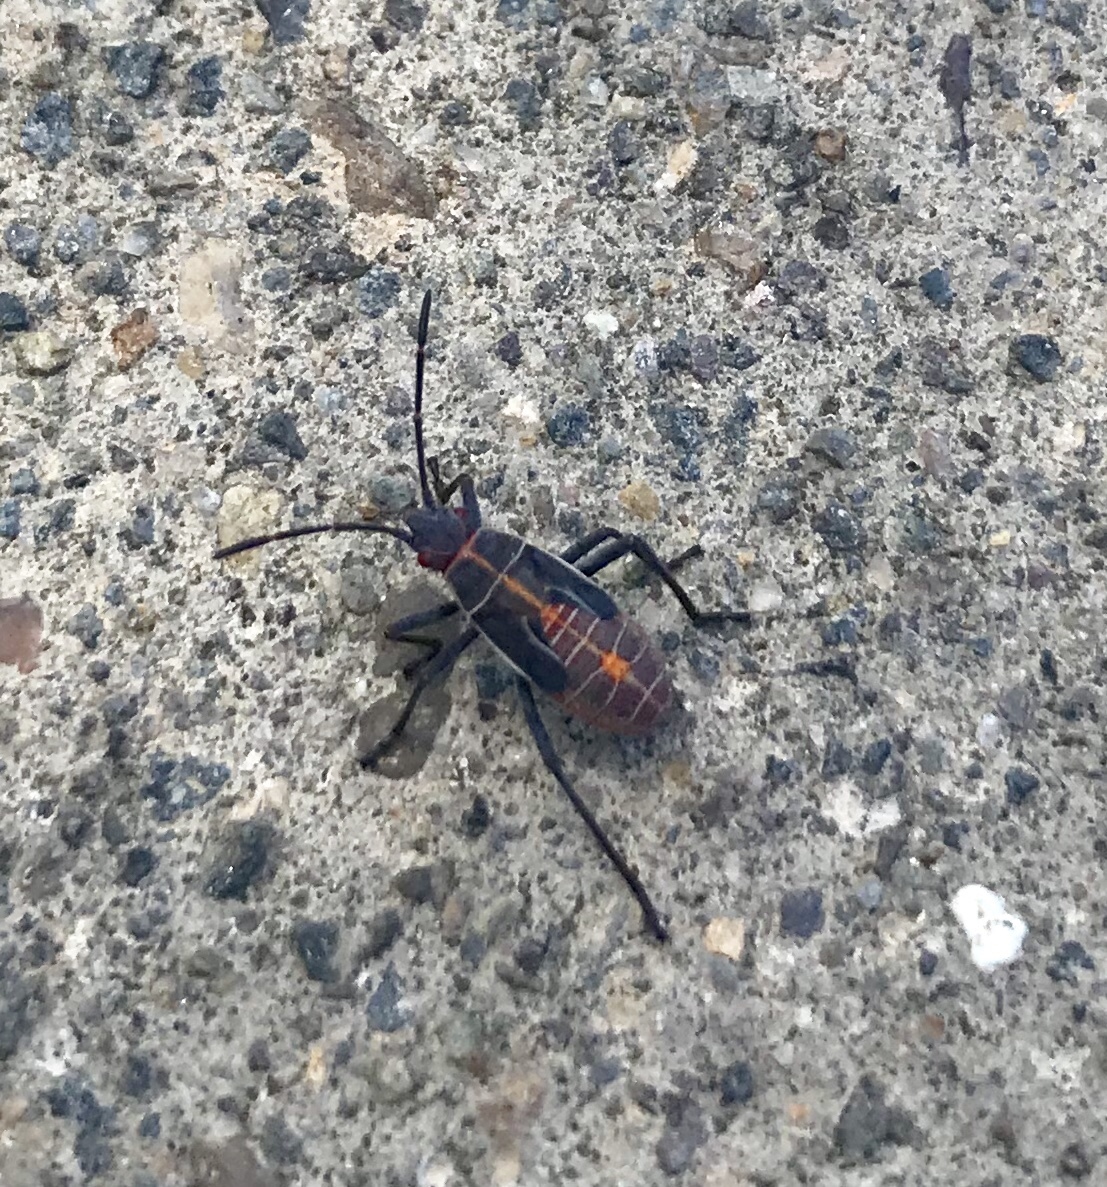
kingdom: Animalia
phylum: Arthropoda
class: Insecta
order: Hemiptera
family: Rhopalidae
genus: Boisea
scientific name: Boisea rubrolineata
